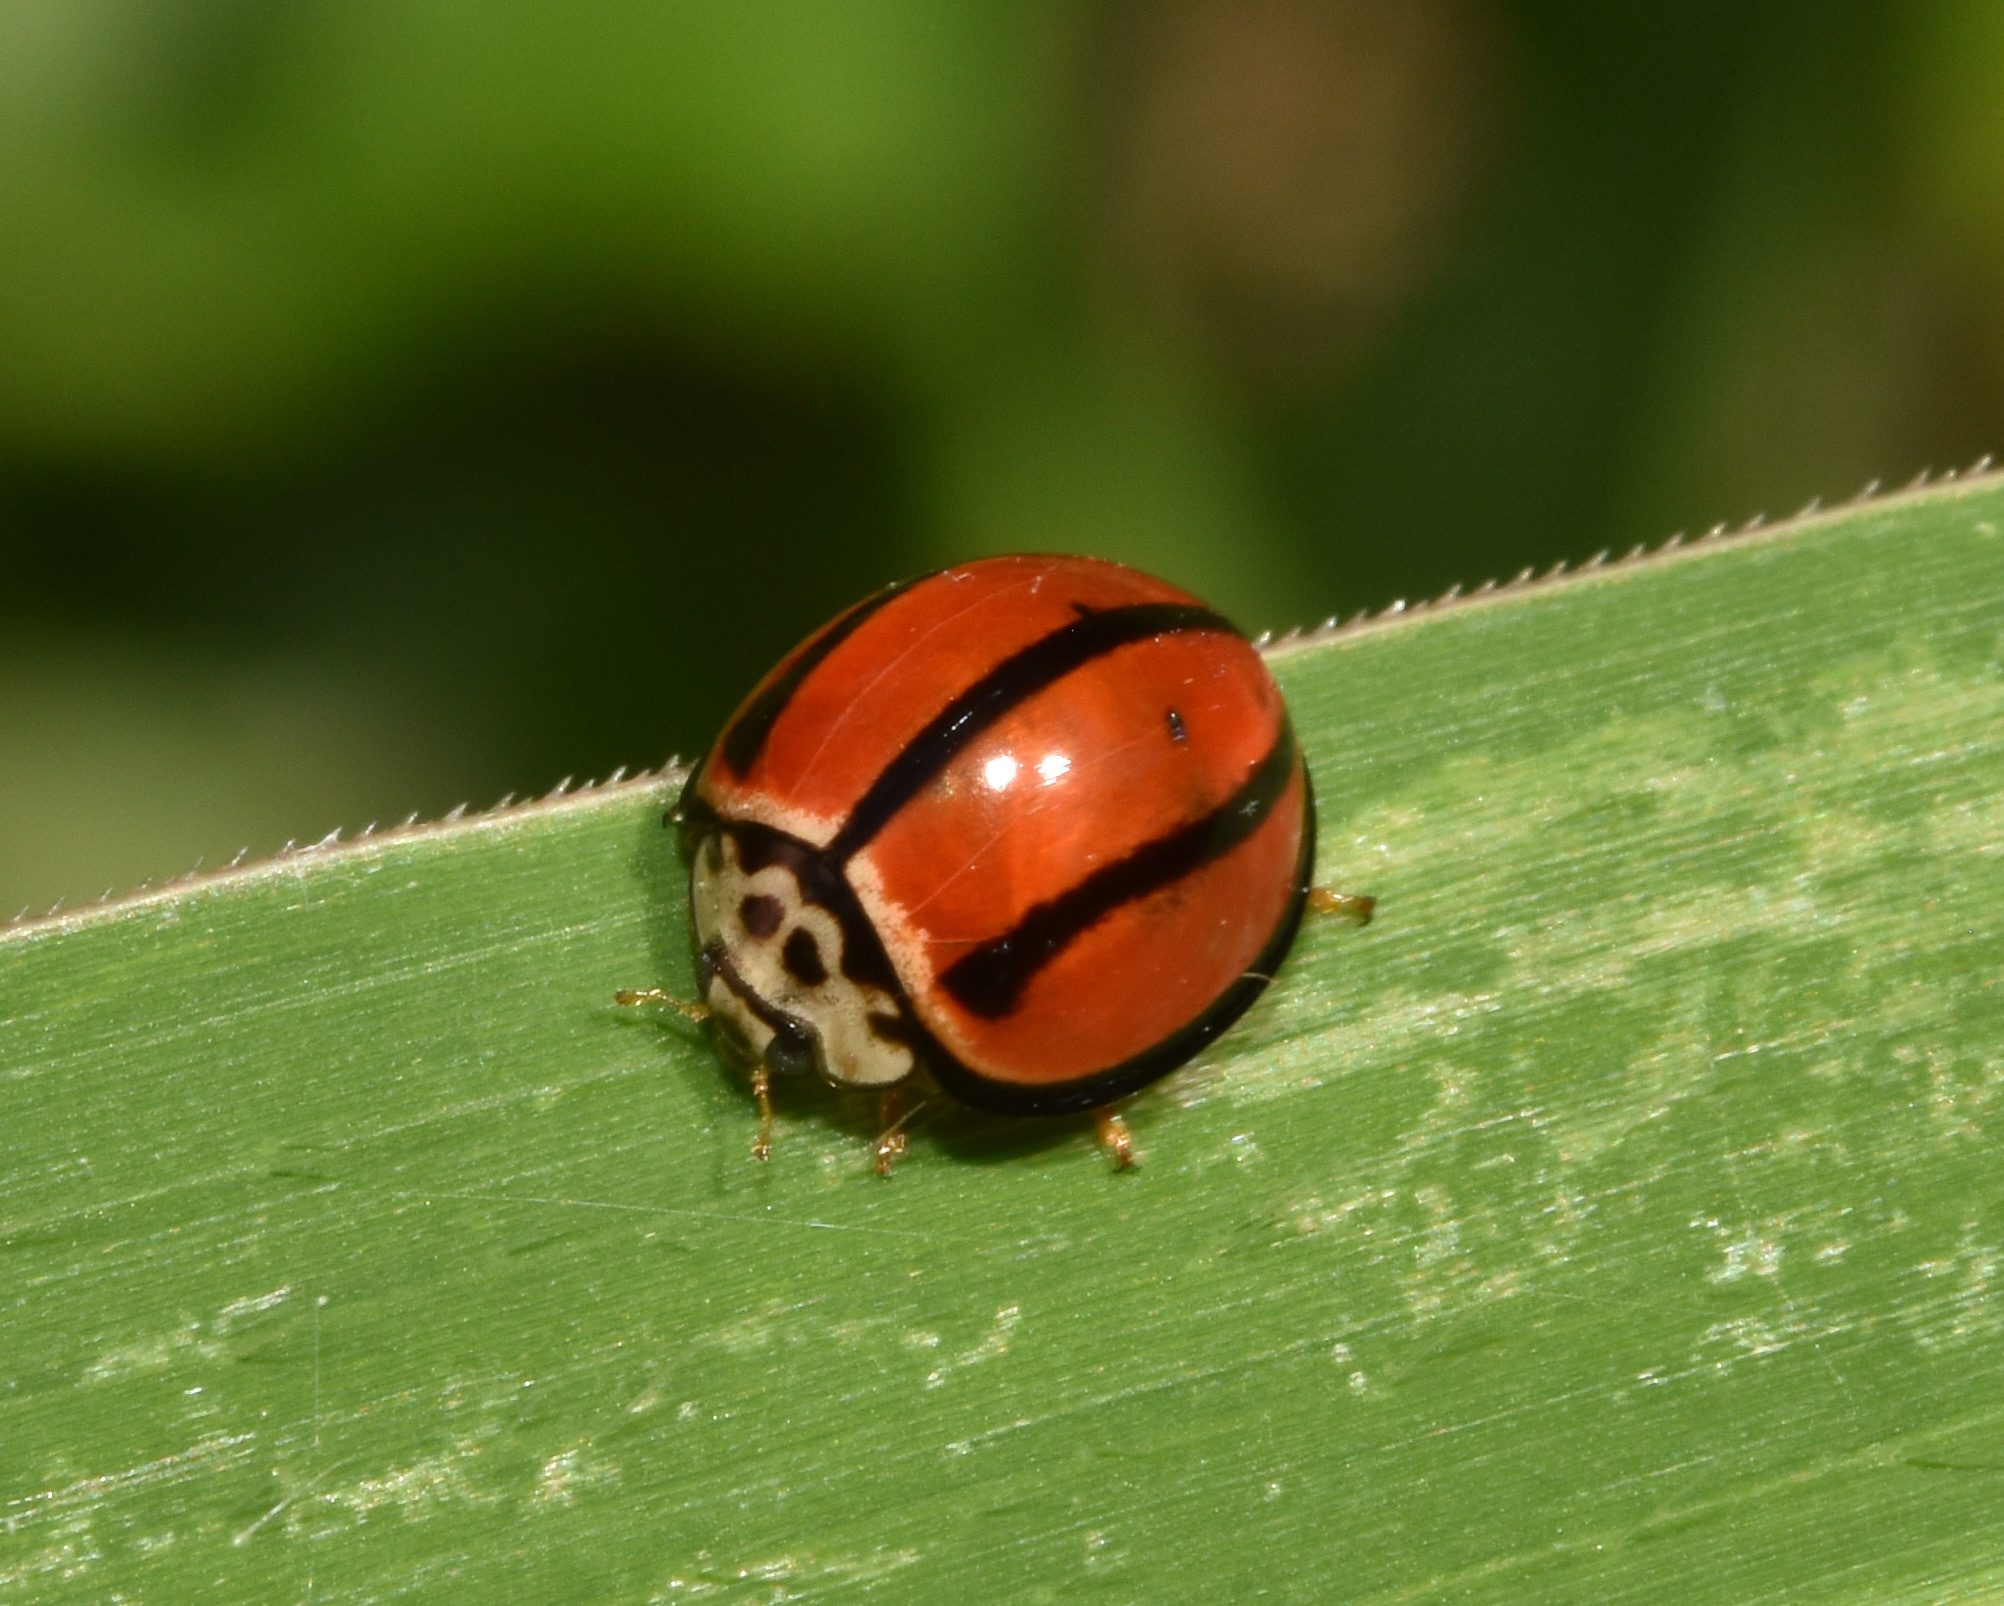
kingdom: Animalia
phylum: Arthropoda
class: Insecta
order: Coleoptera
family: Coccinellidae
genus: Declivitata
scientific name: Declivitata
